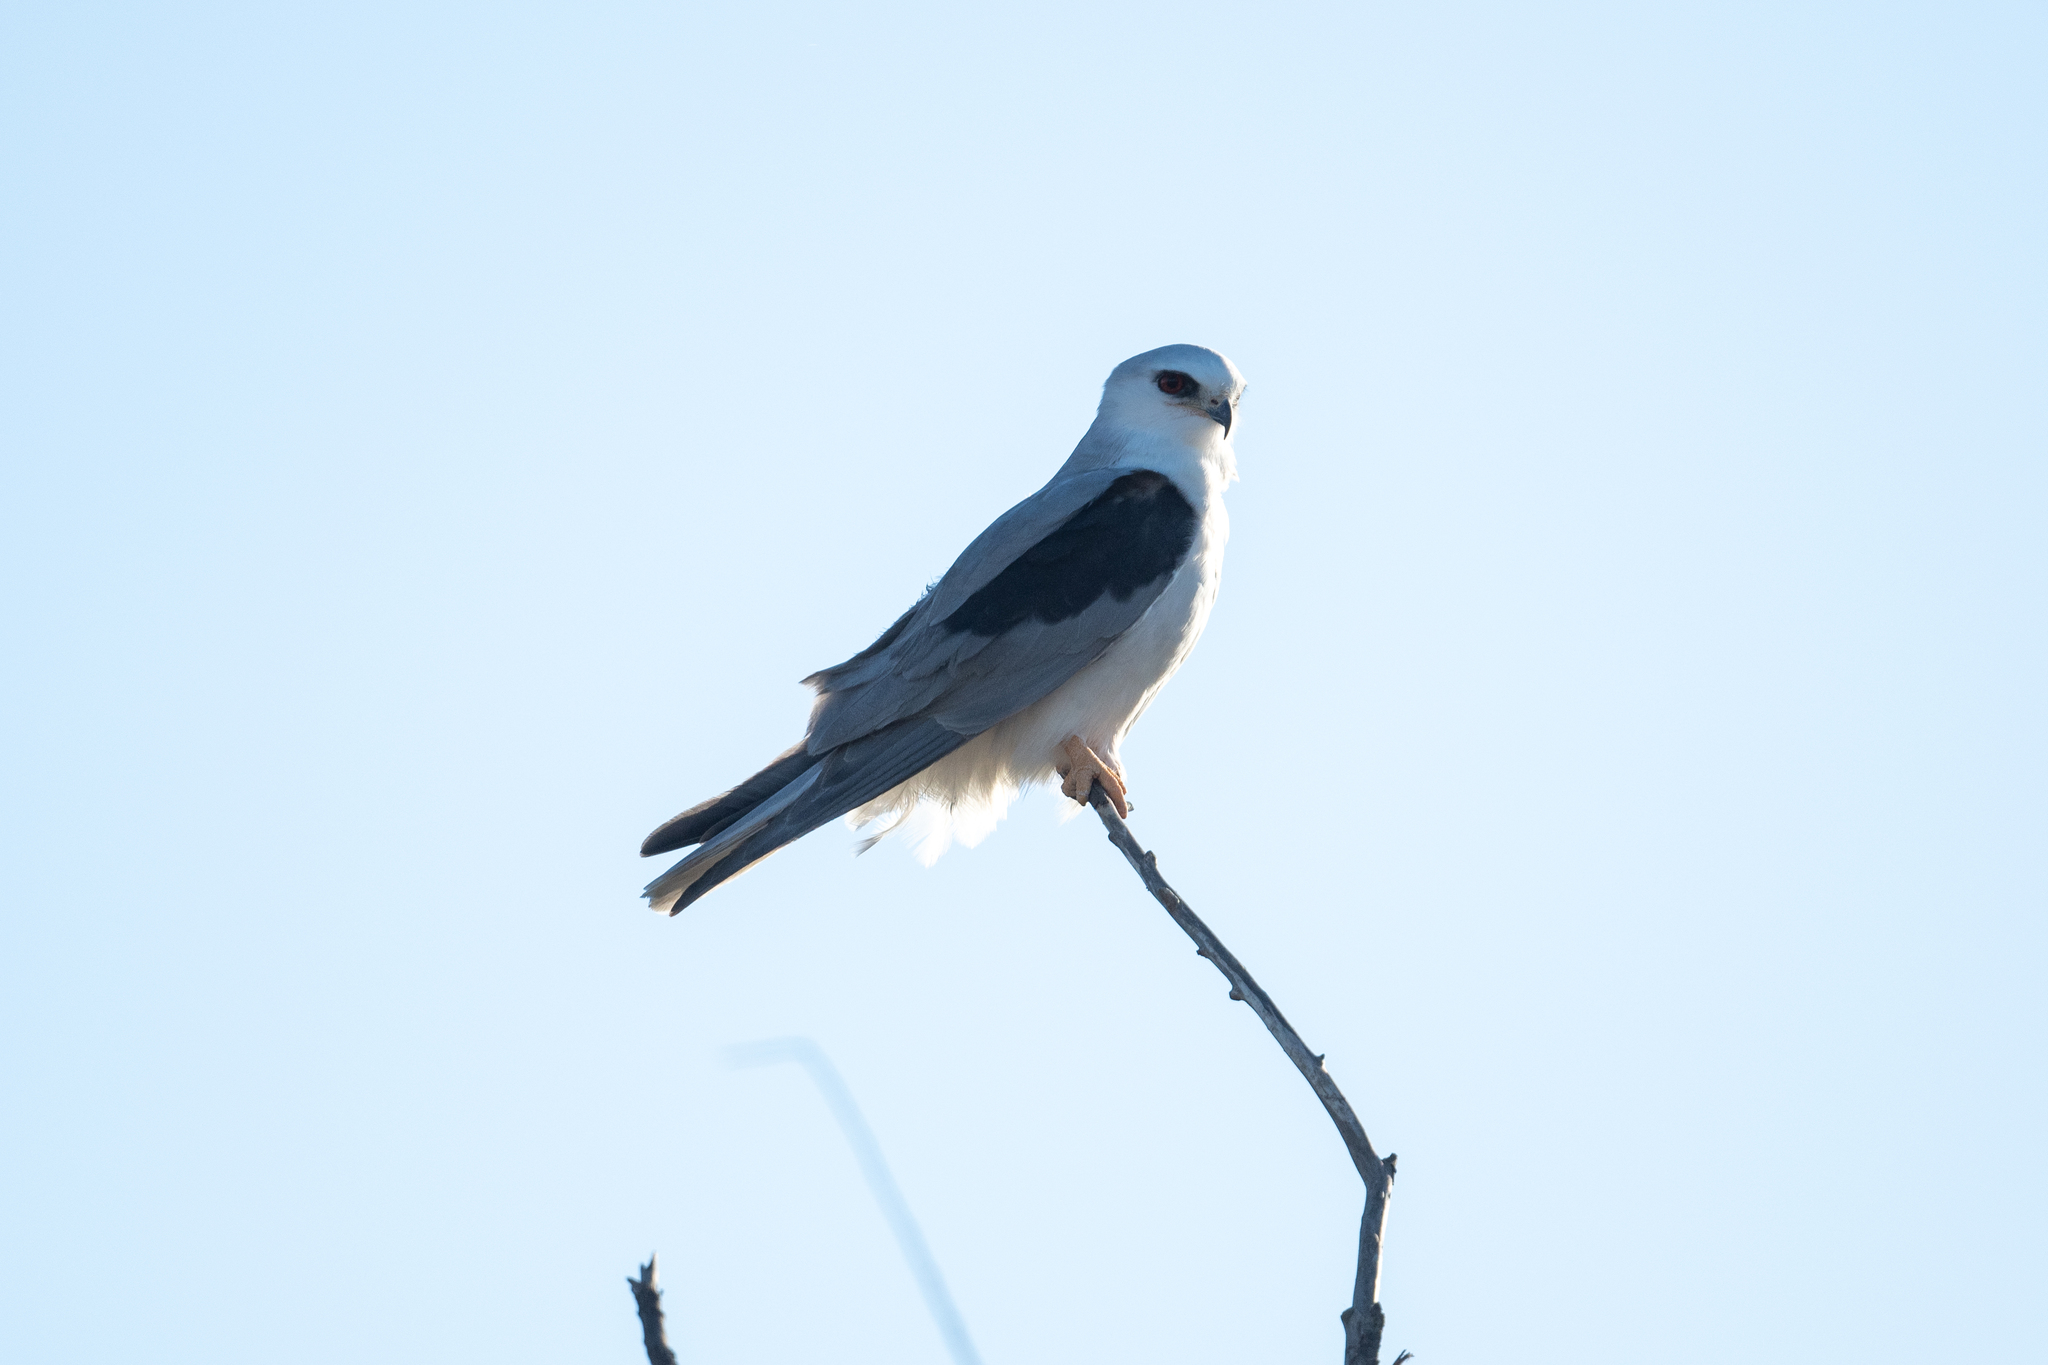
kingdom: Animalia
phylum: Chordata
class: Aves
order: Accipitriformes
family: Accipitridae
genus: Elanus
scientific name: Elanus leucurus
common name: White-tailed kite
